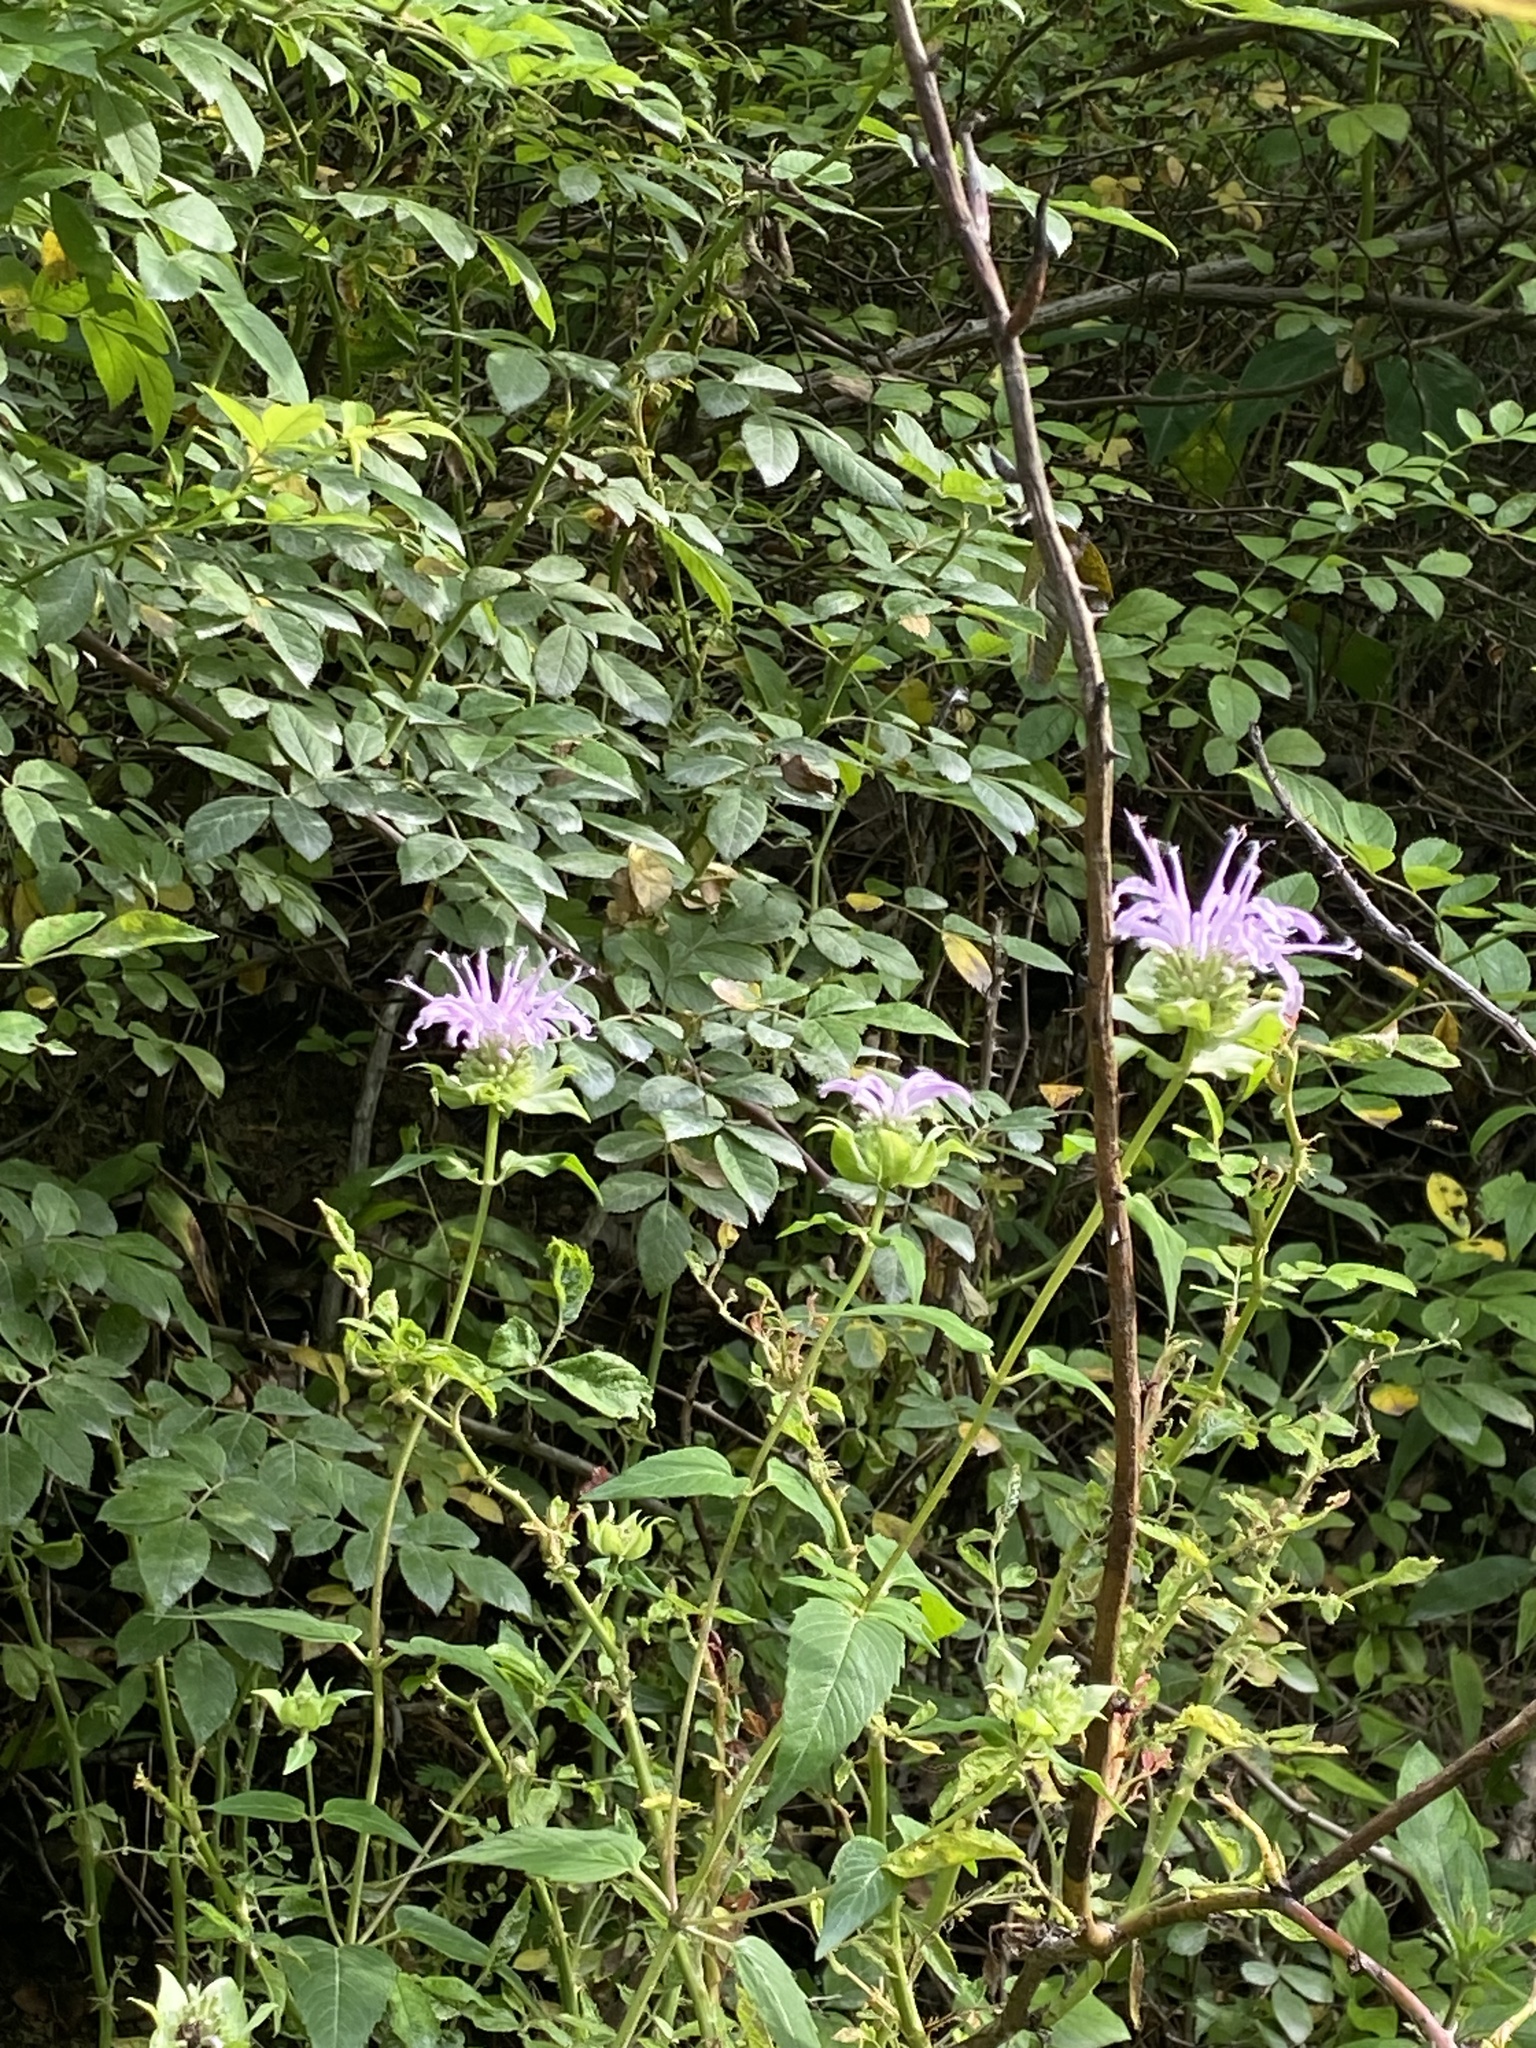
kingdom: Plantae
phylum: Tracheophyta
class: Magnoliopsida
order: Lamiales
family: Lamiaceae
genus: Monarda
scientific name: Monarda fistulosa
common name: Purple beebalm
